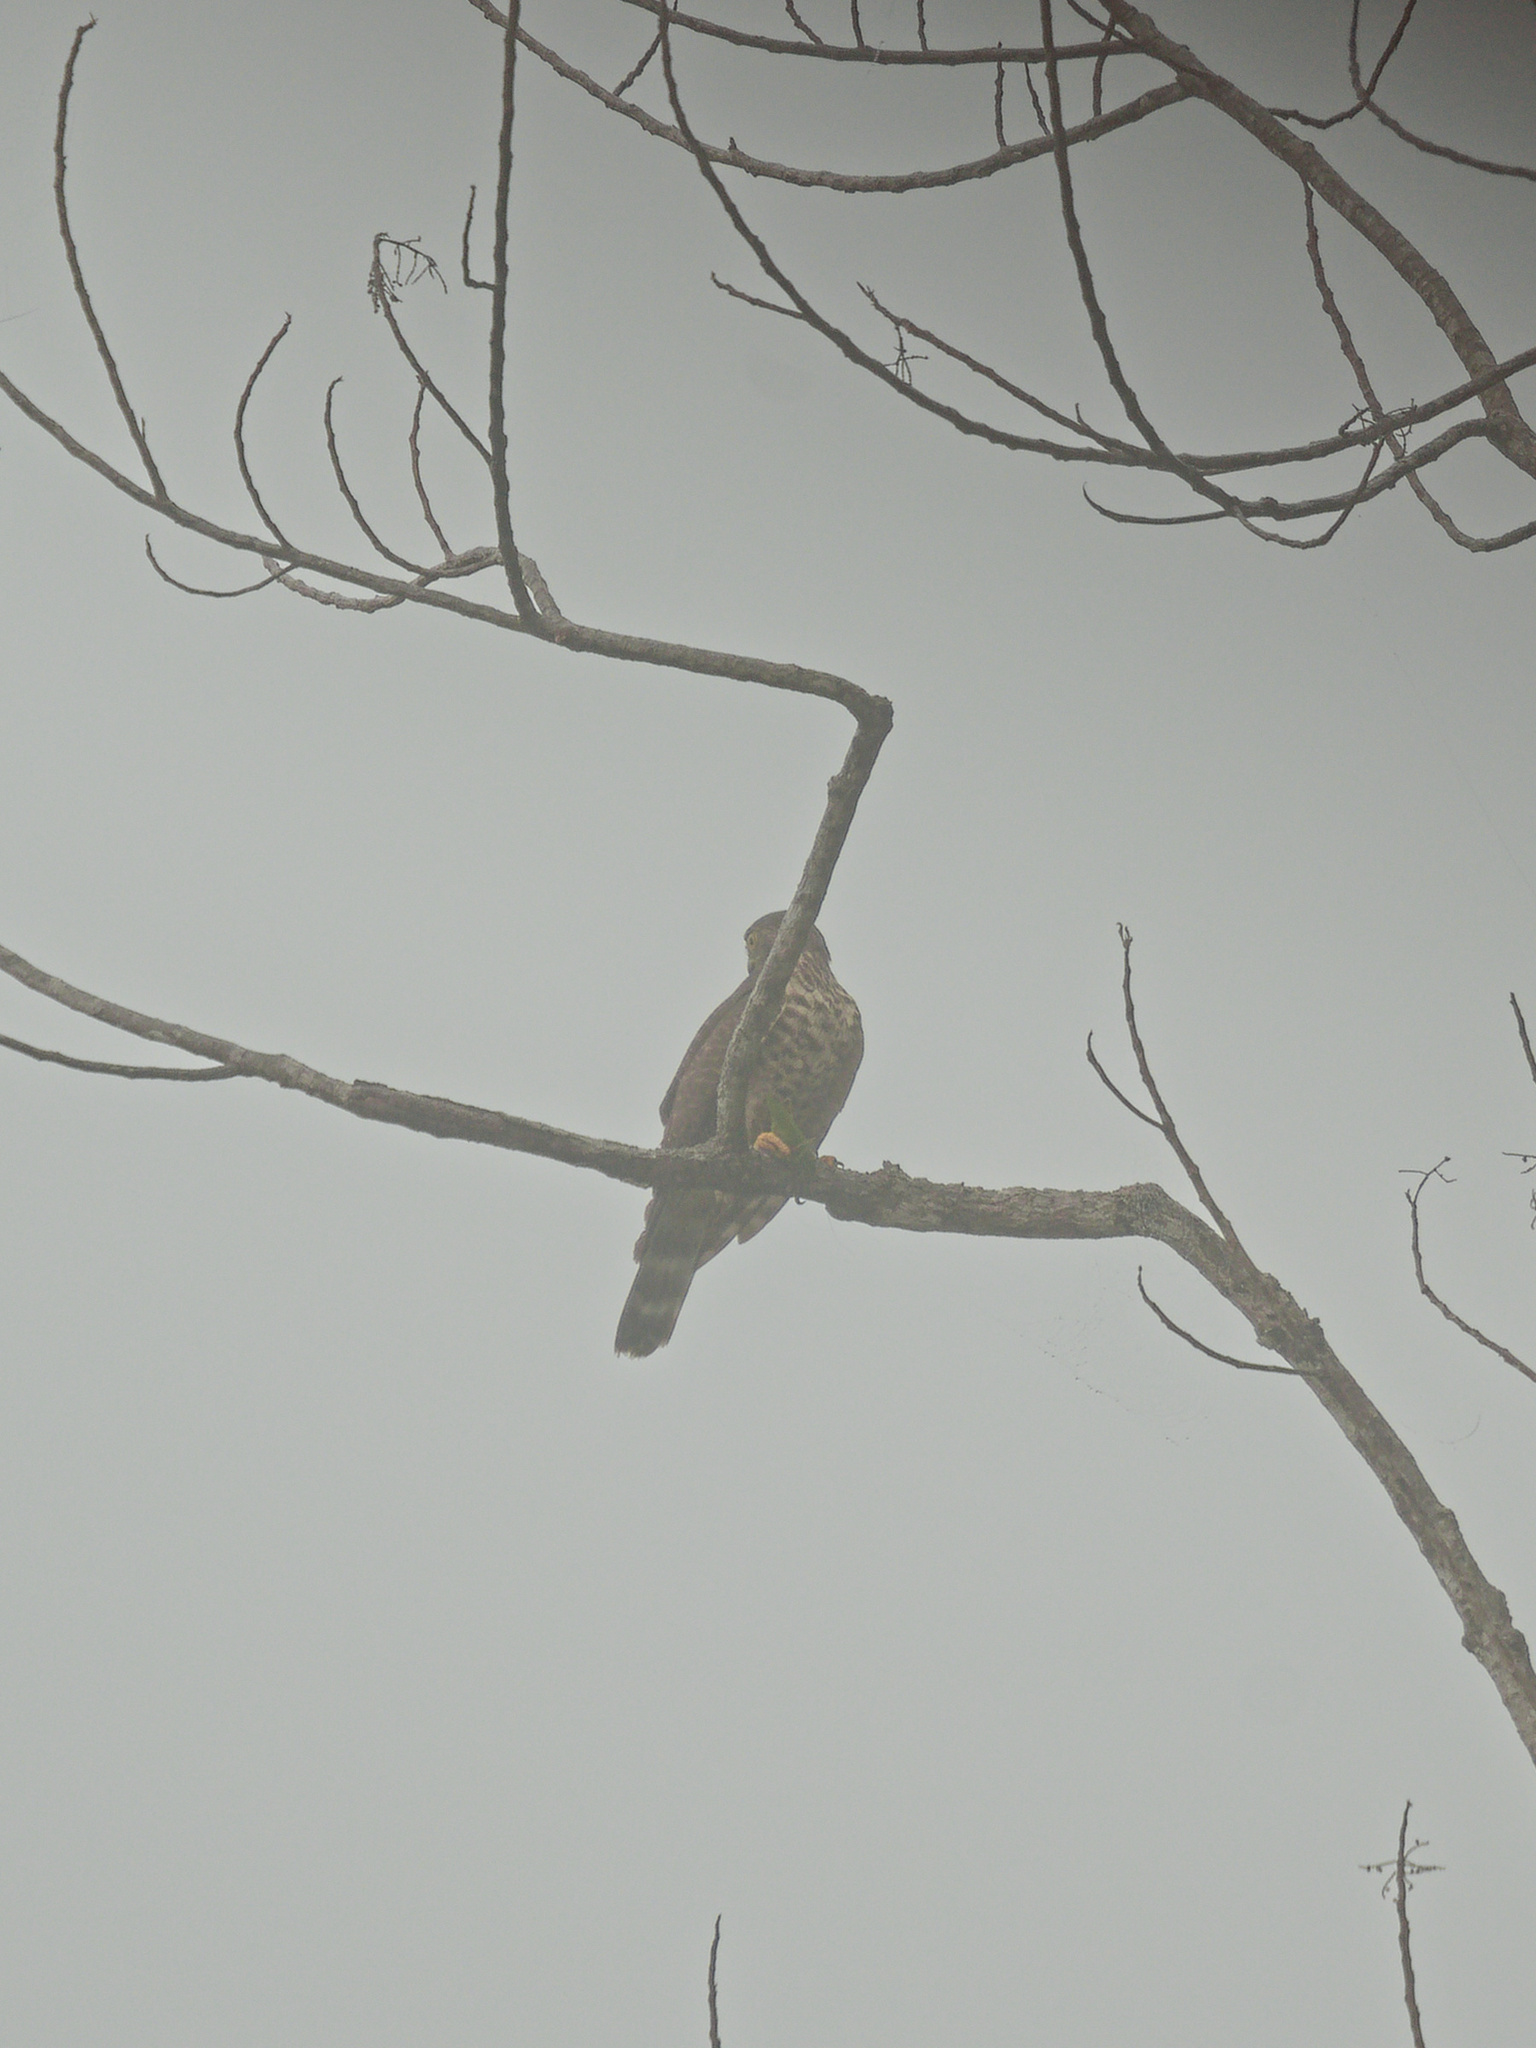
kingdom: Animalia
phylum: Chordata
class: Aves
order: Accipitriformes
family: Accipitridae
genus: Harpagus
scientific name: Harpagus bidentatus
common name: Double-toothed kite
